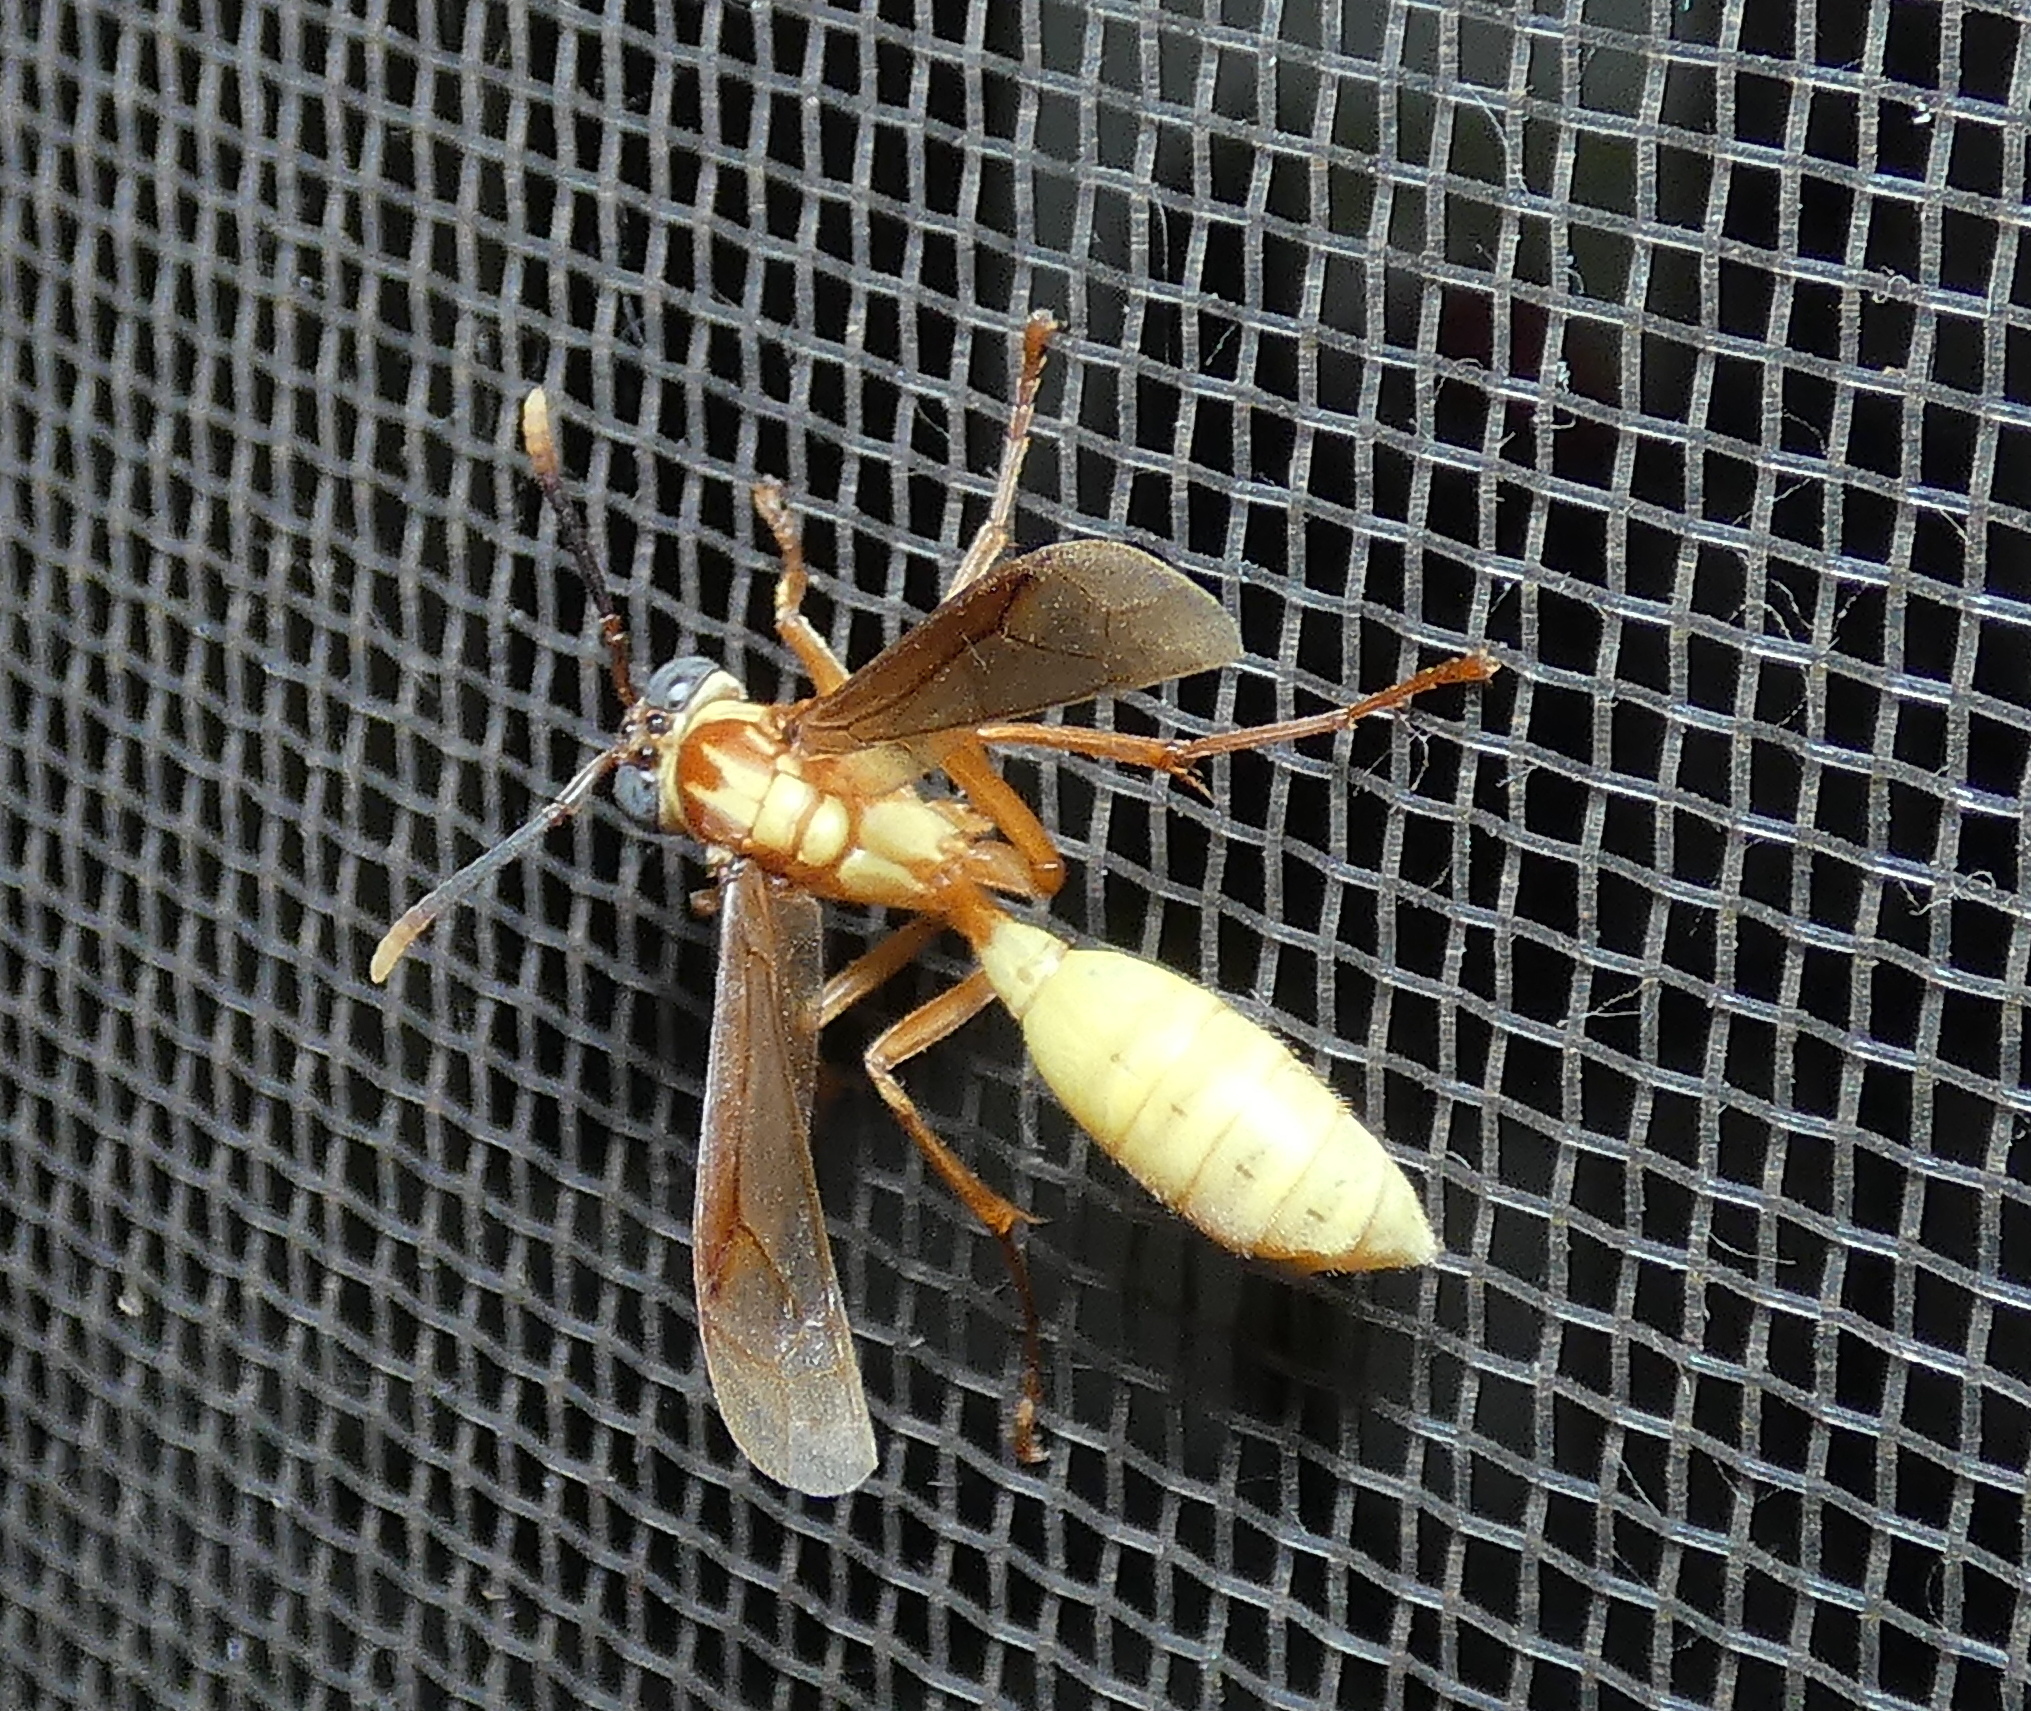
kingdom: Animalia
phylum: Arthropoda
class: Insecta
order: Hymenoptera
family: Vespidae
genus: Apoica
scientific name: Apoica flavissima
